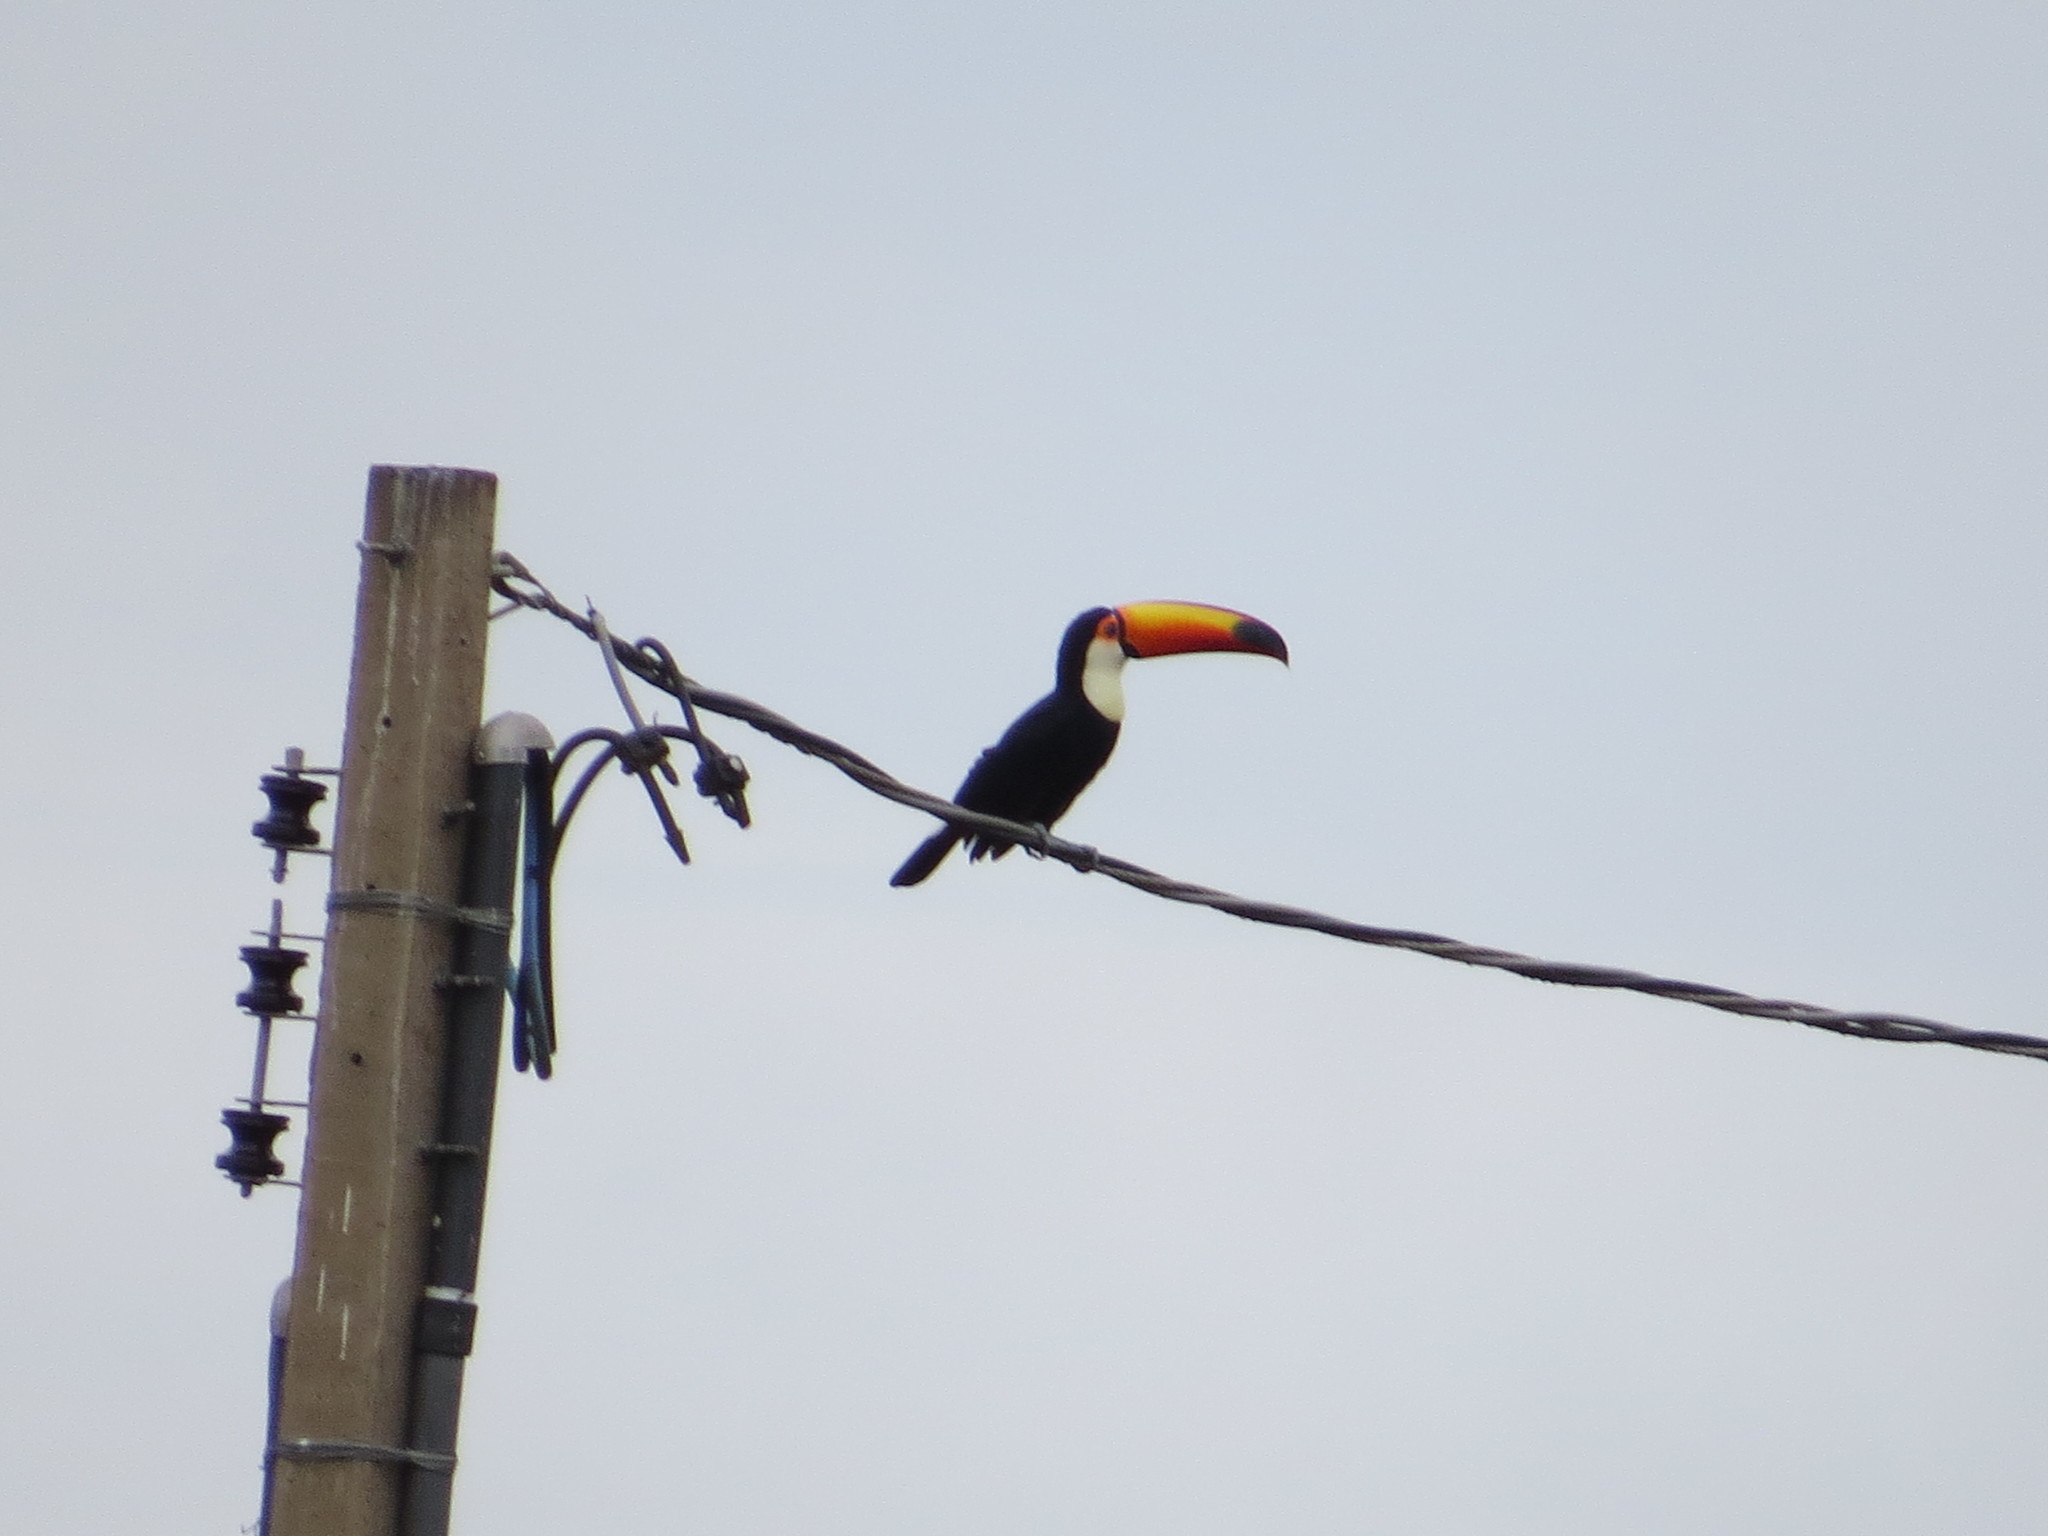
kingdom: Animalia
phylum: Chordata
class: Aves
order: Piciformes
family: Ramphastidae
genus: Ramphastos
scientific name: Ramphastos toco
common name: Toco toucan
